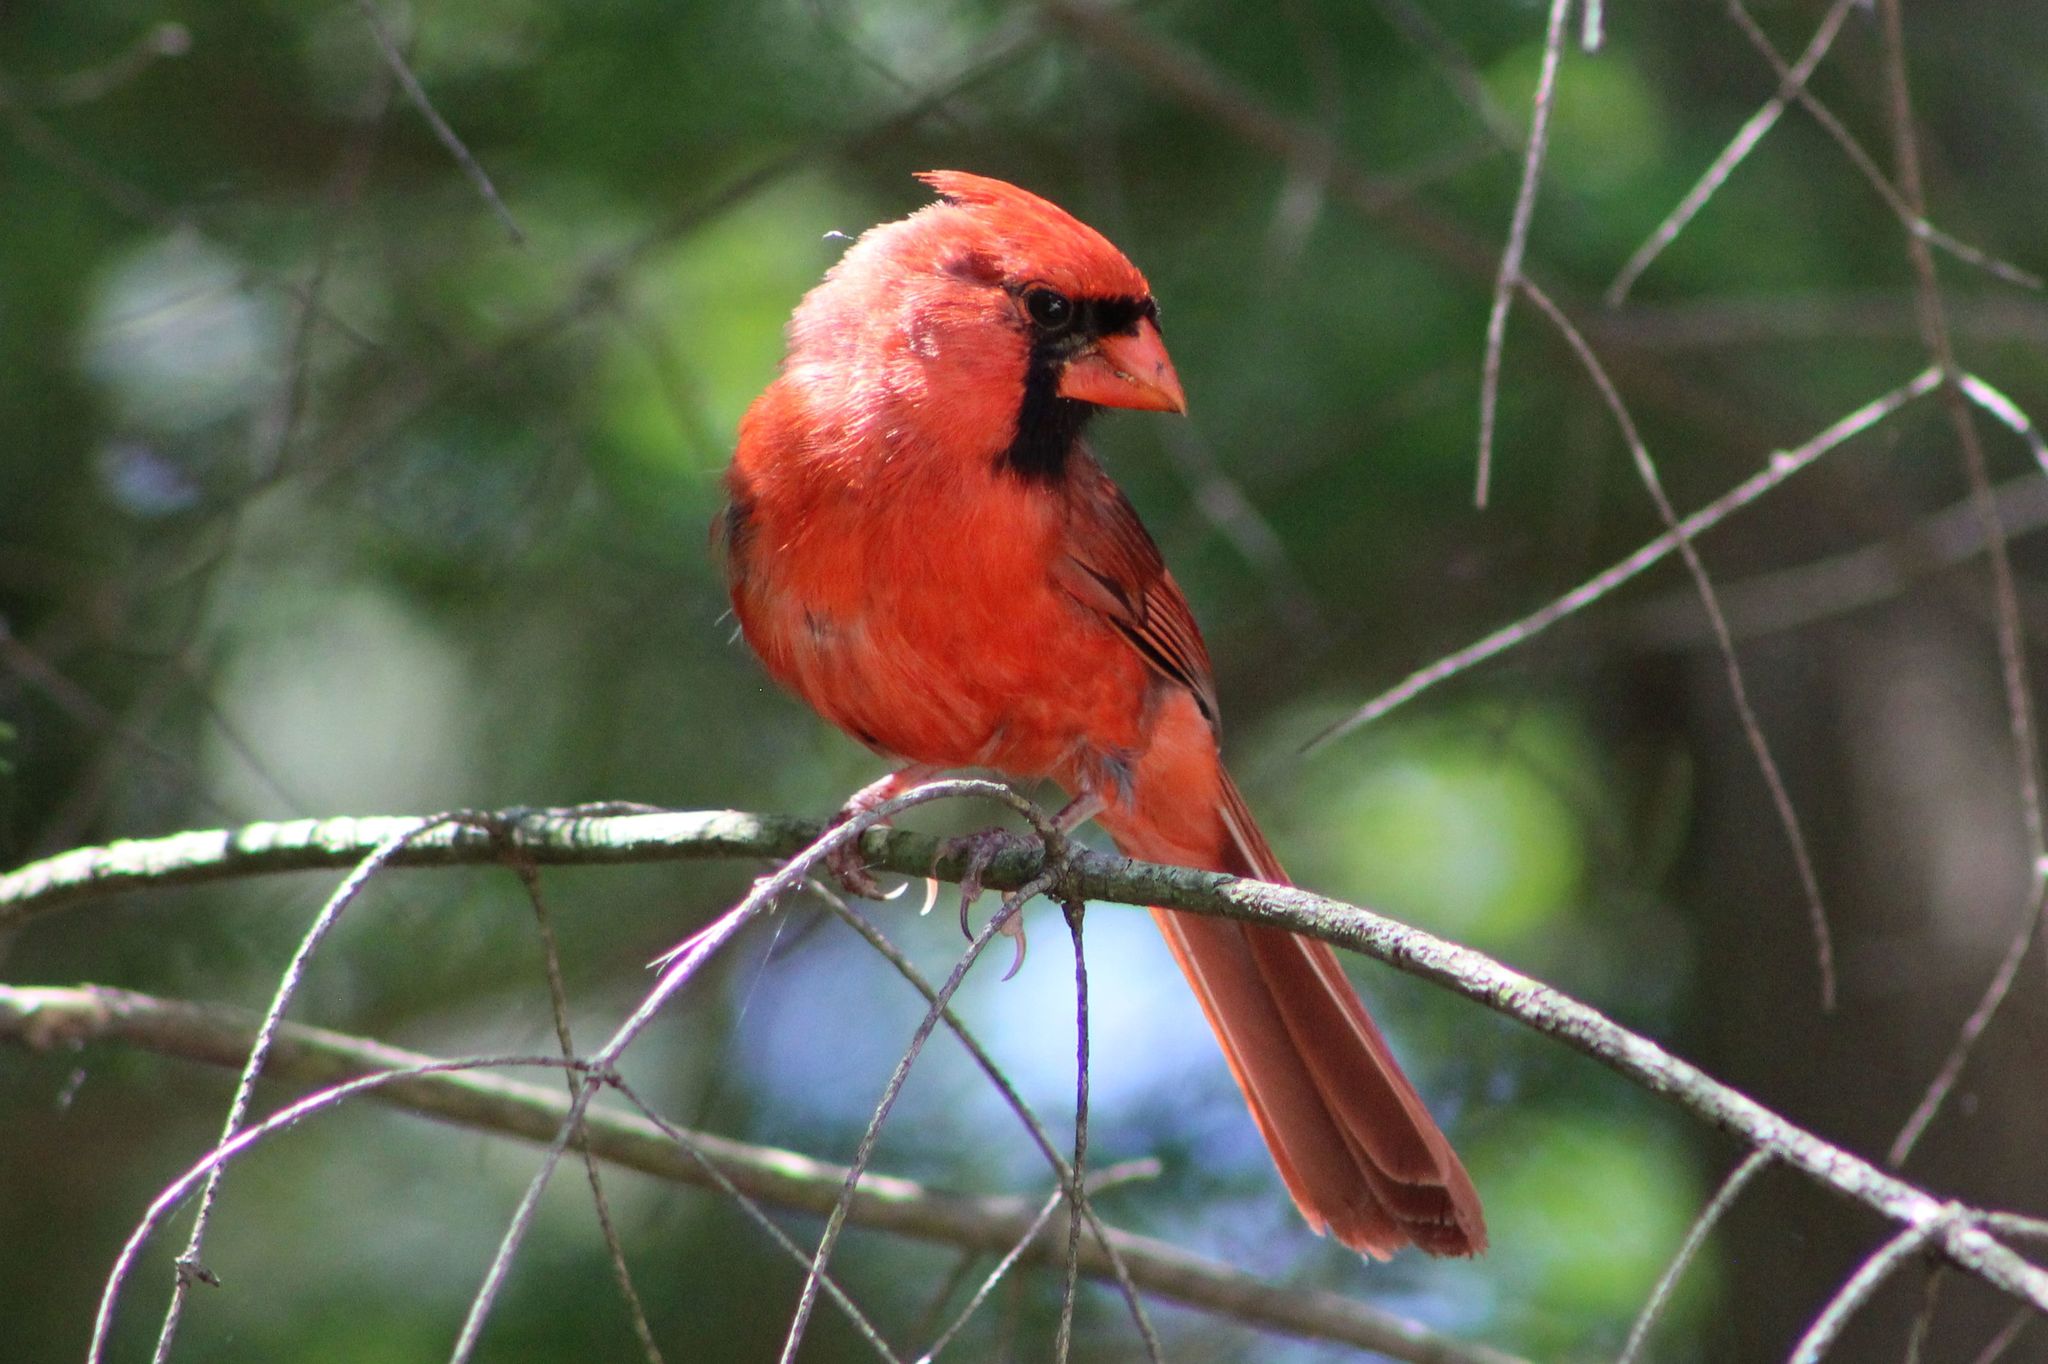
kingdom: Animalia
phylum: Chordata
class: Aves
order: Passeriformes
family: Cardinalidae
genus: Cardinalis
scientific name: Cardinalis cardinalis
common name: Northern cardinal
